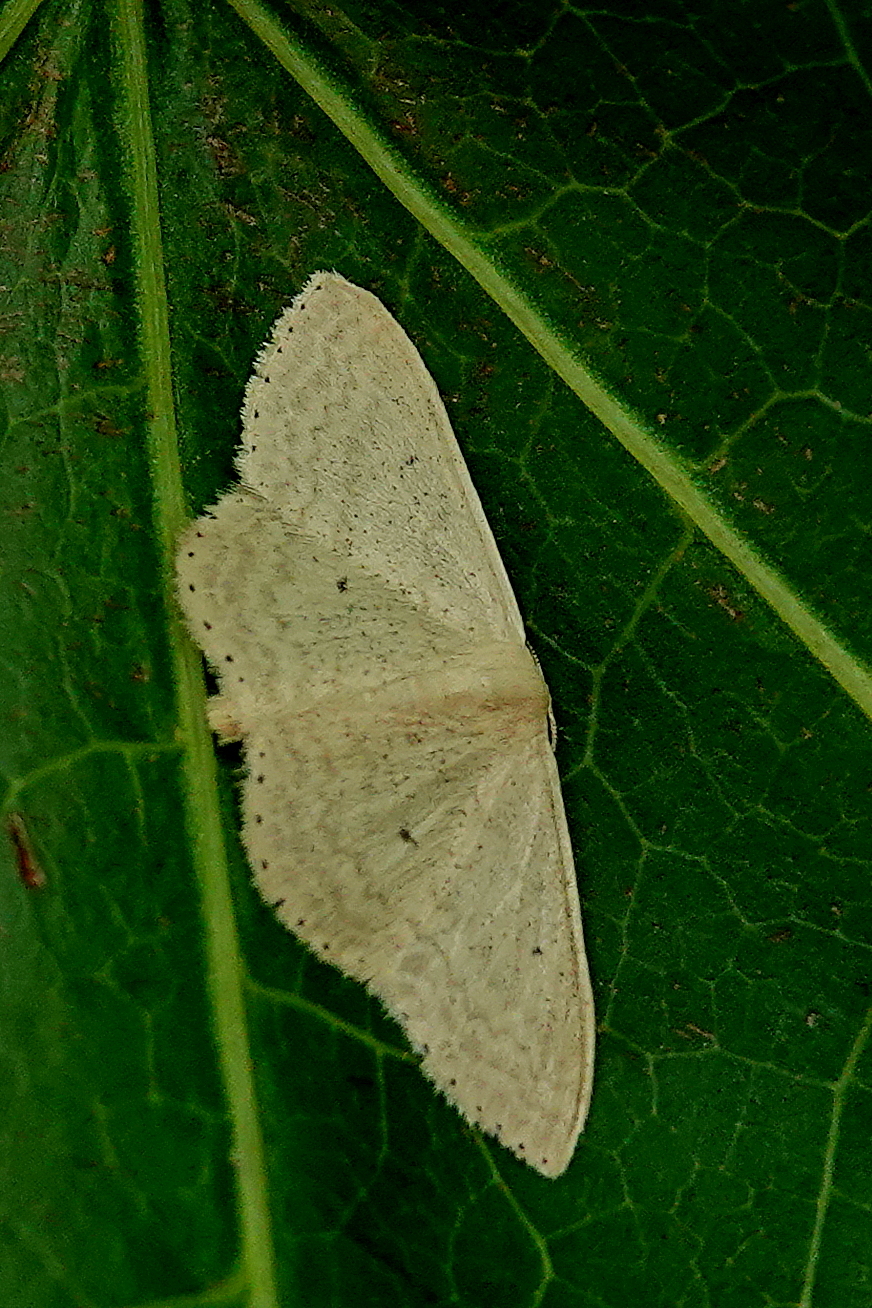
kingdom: Animalia
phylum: Arthropoda
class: Insecta
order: Lepidoptera
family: Geometridae
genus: Scopula
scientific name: Scopula optivata
